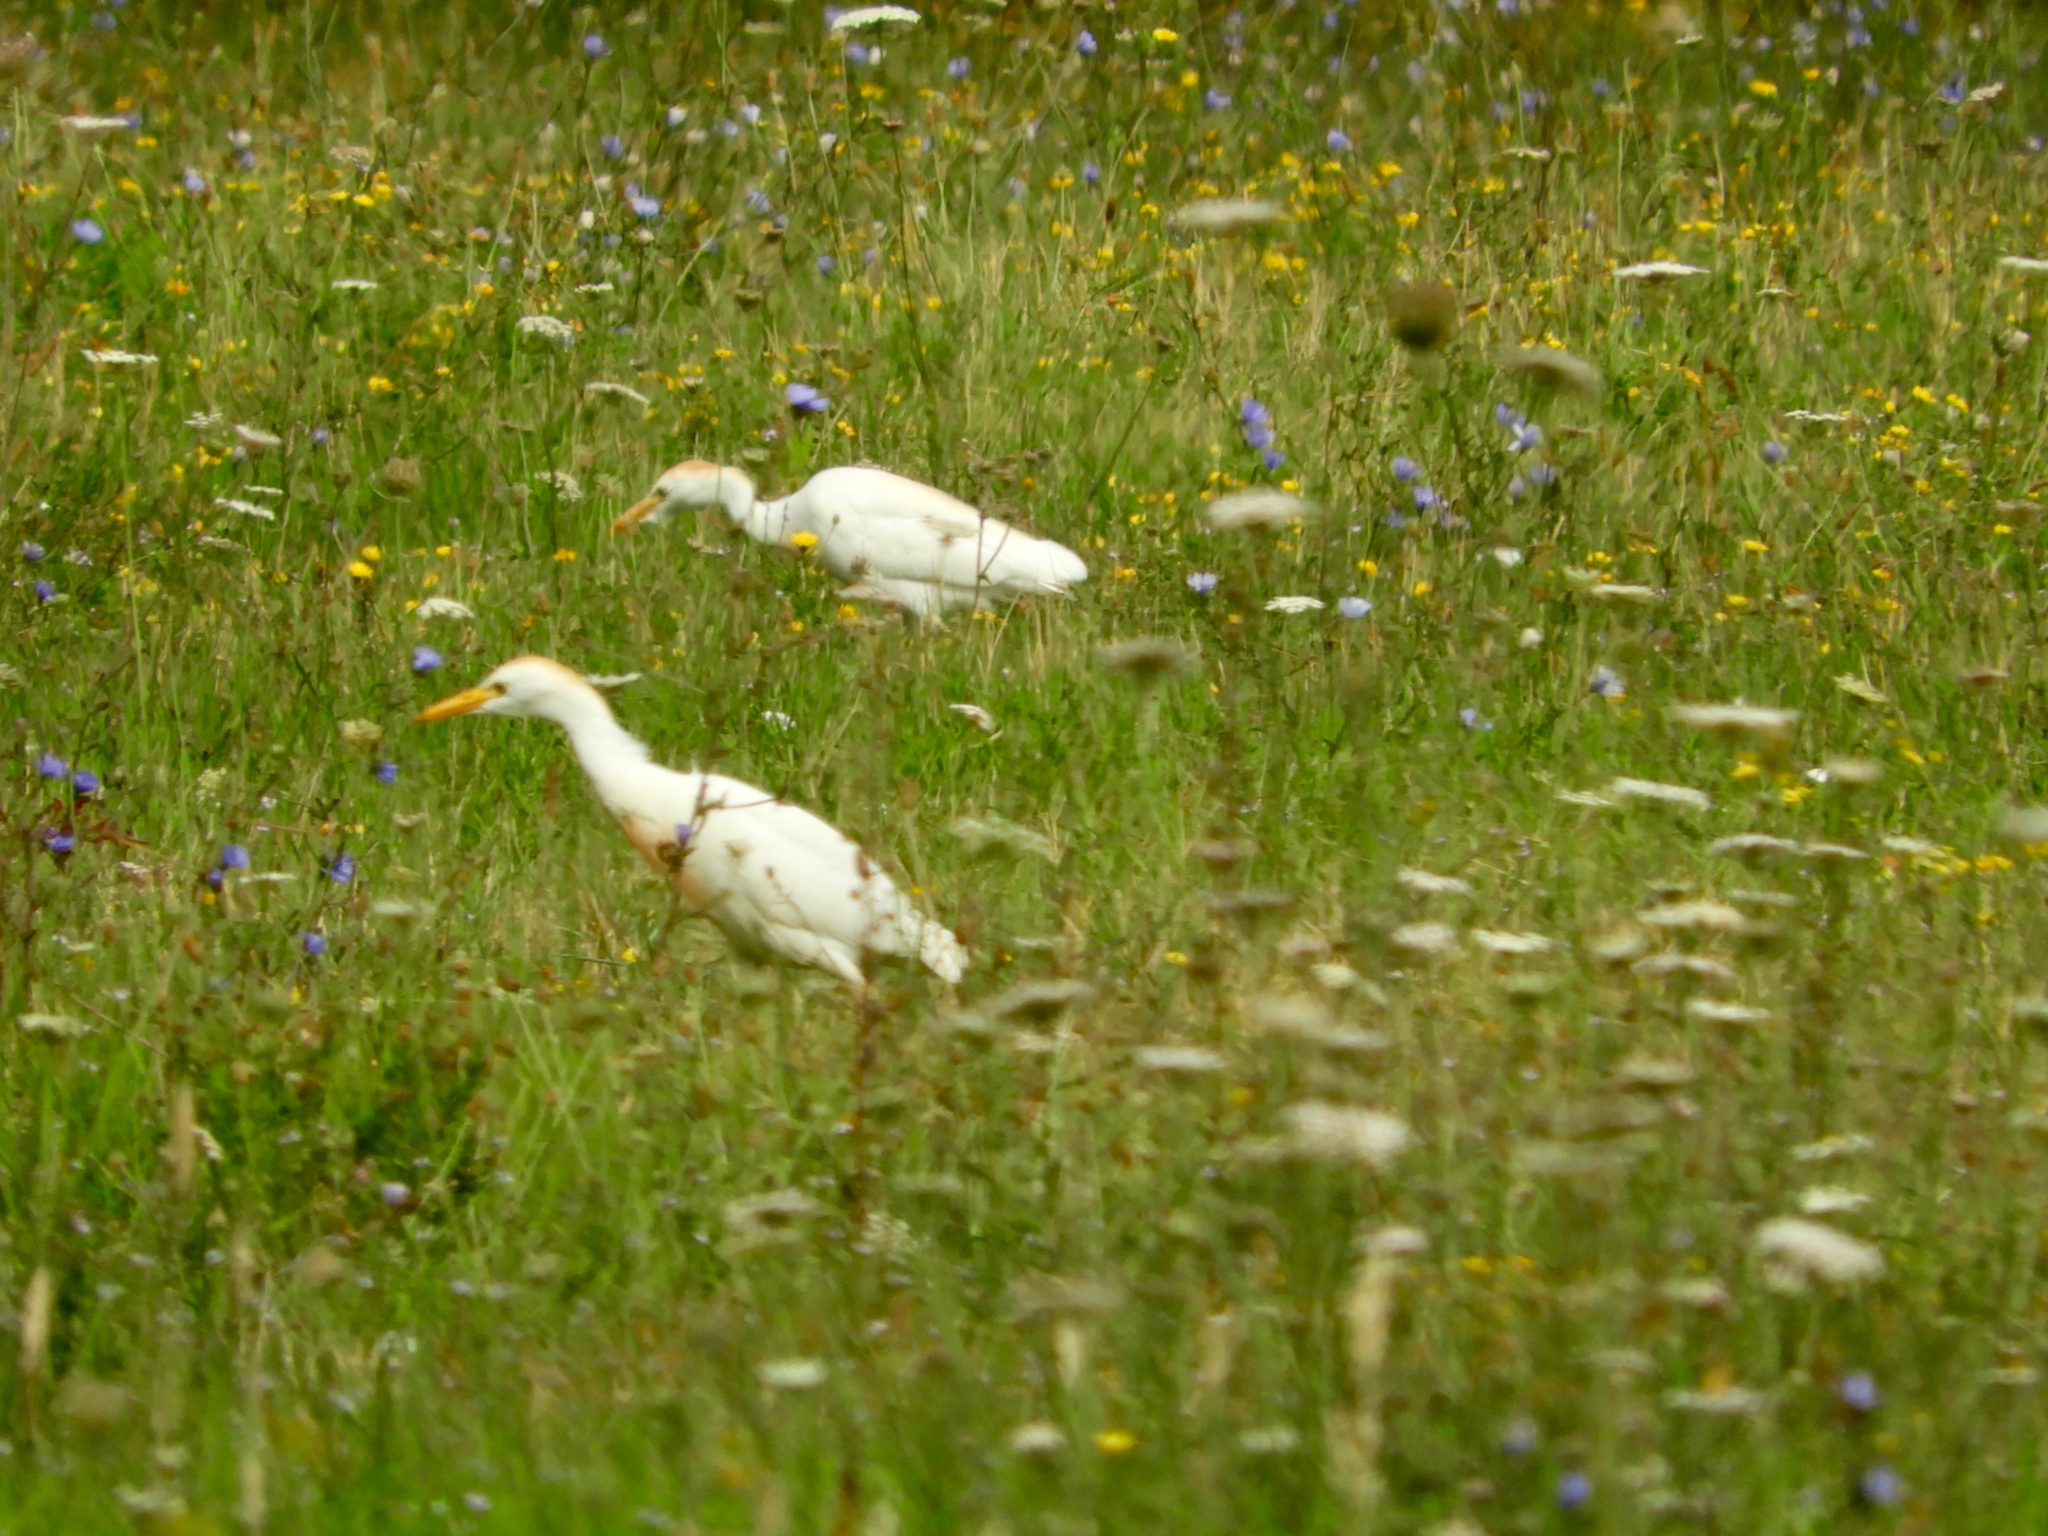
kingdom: Animalia
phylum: Chordata
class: Aves
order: Pelecaniformes
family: Ardeidae
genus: Bubulcus
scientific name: Bubulcus ibis
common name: Cattle egret
